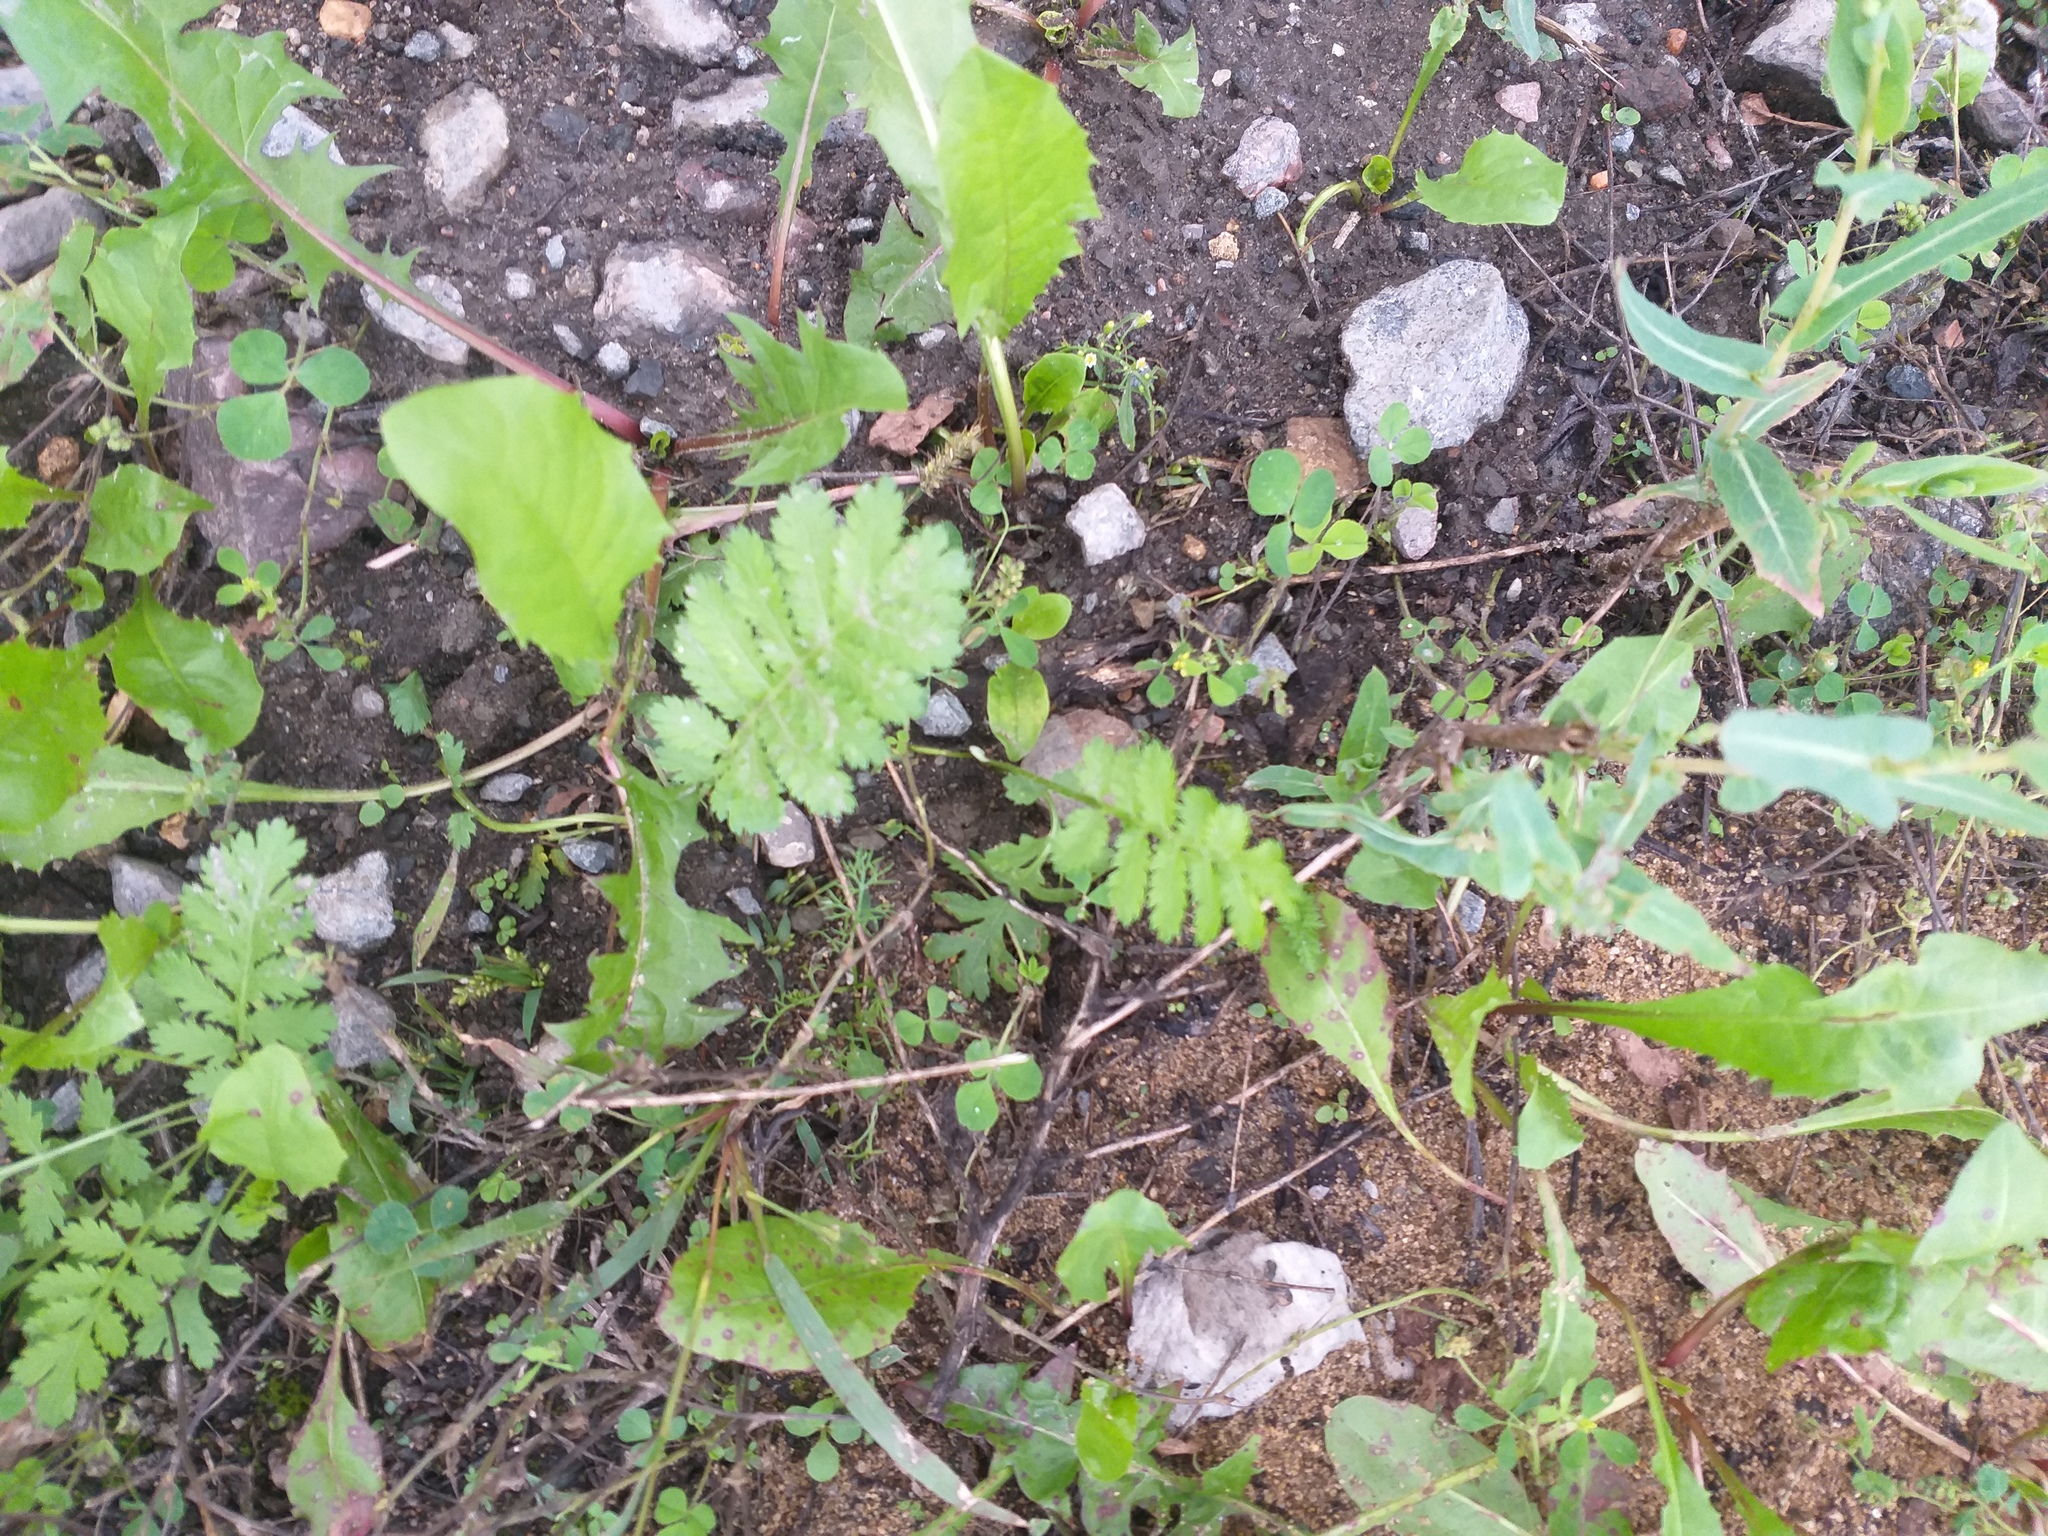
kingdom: Plantae
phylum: Tracheophyta
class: Magnoliopsida
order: Asterales
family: Asteraceae
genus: Tanacetum
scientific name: Tanacetum vulgare
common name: Common tansy
